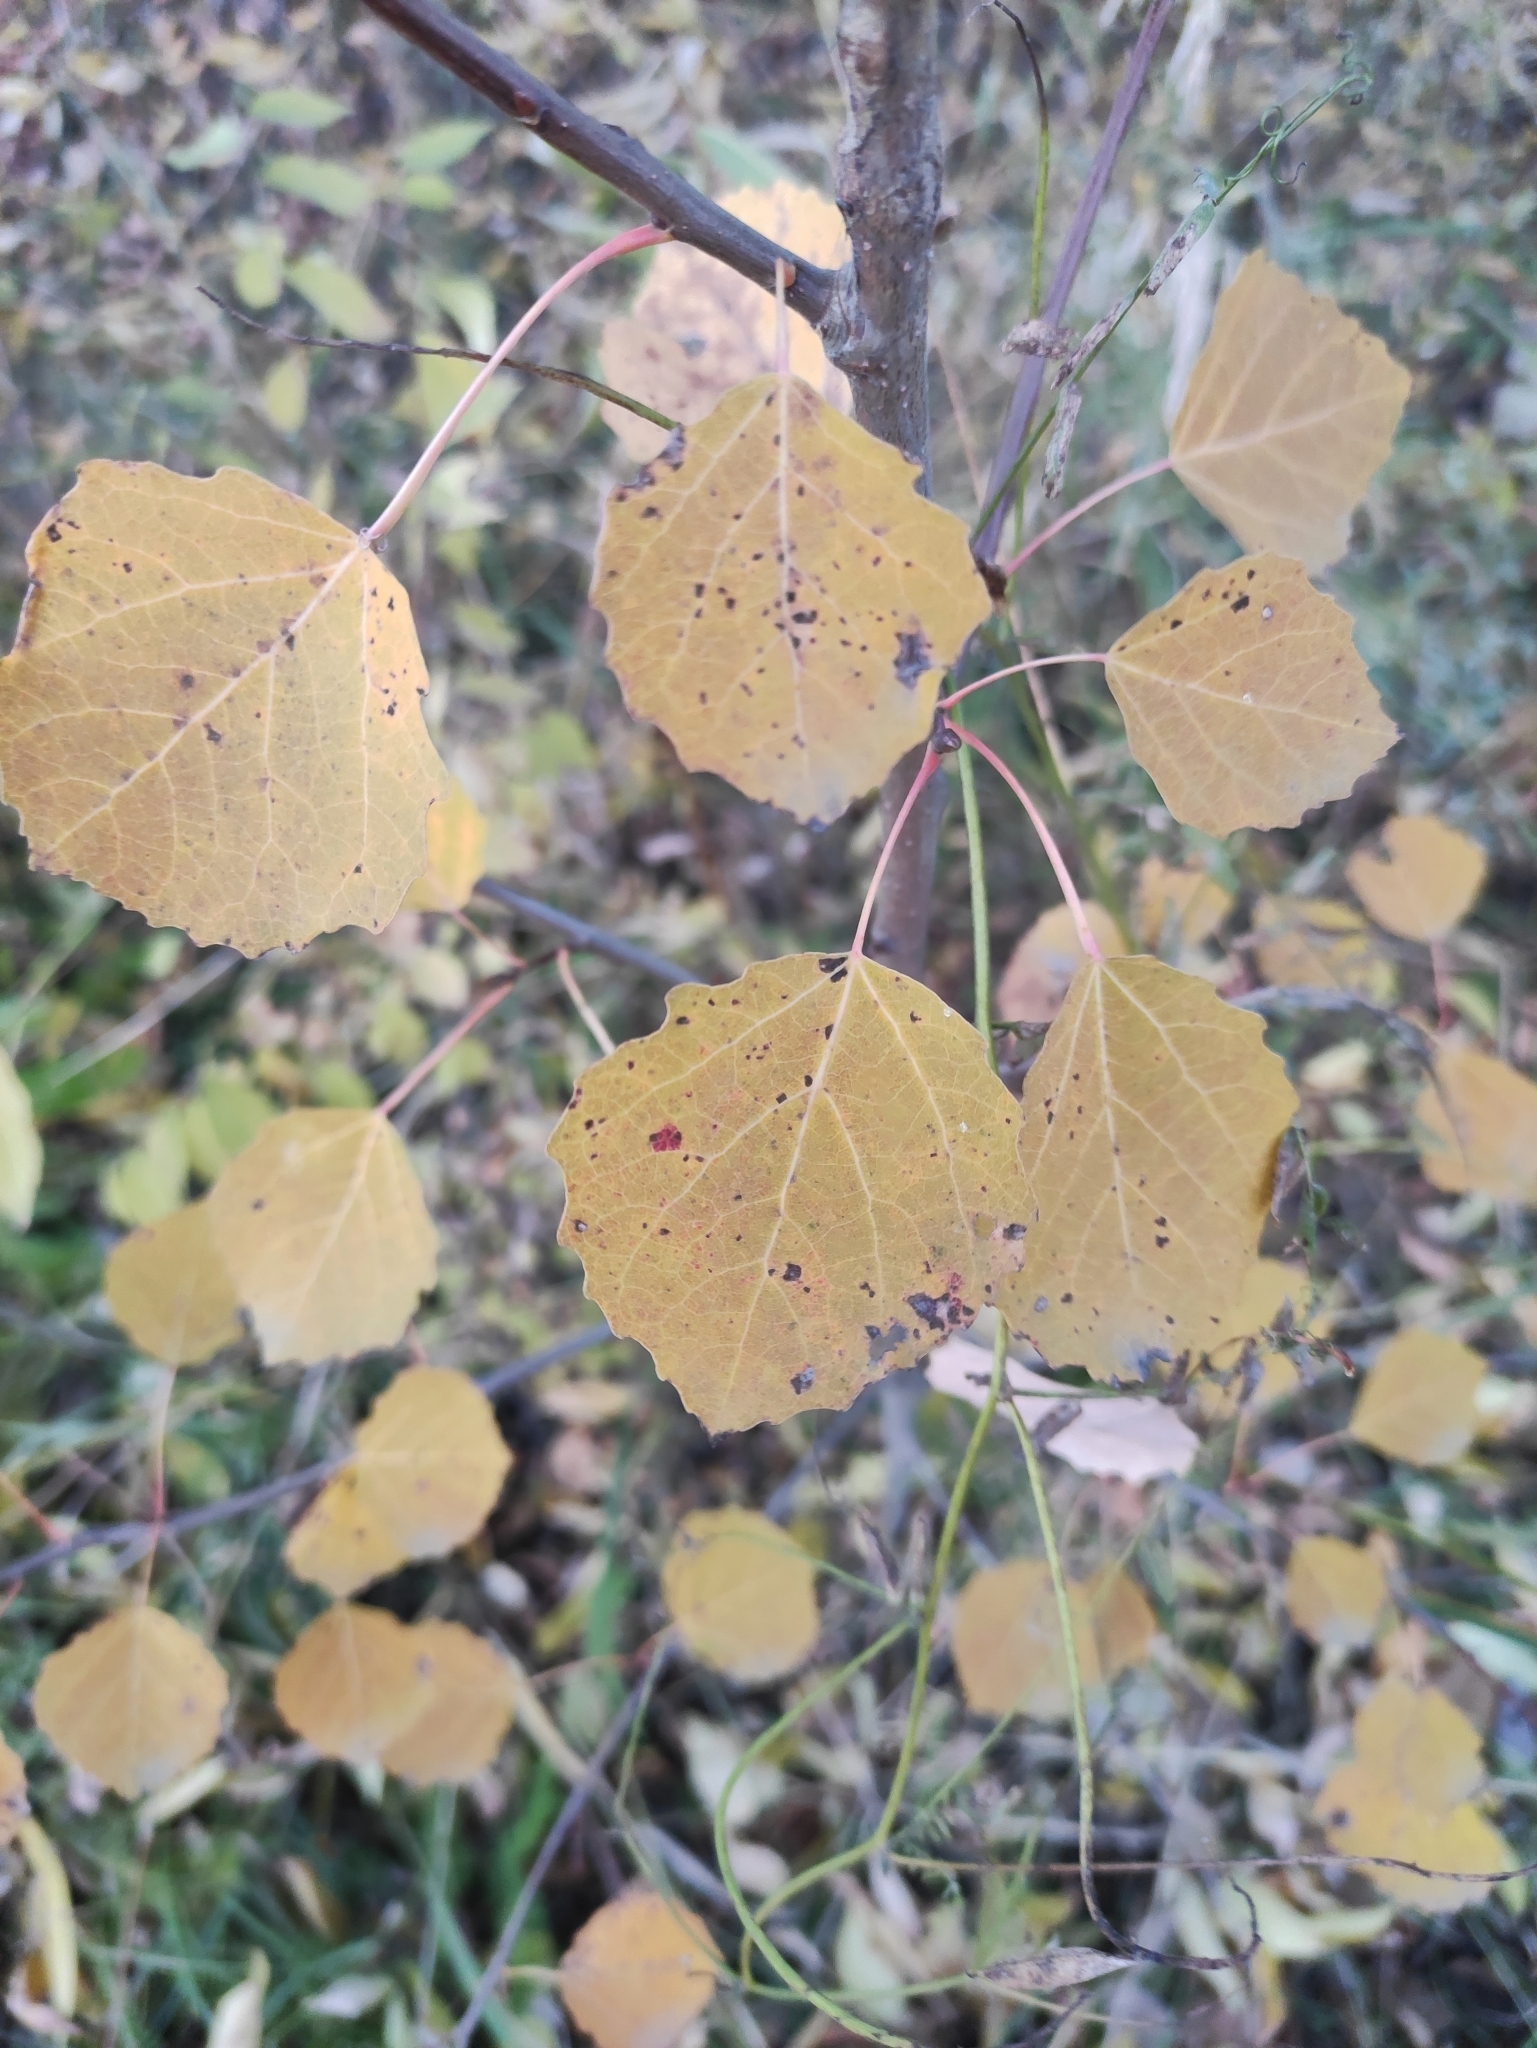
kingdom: Plantae
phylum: Tracheophyta
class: Magnoliopsida
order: Malpighiales
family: Salicaceae
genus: Populus
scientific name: Populus tremula
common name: European aspen
